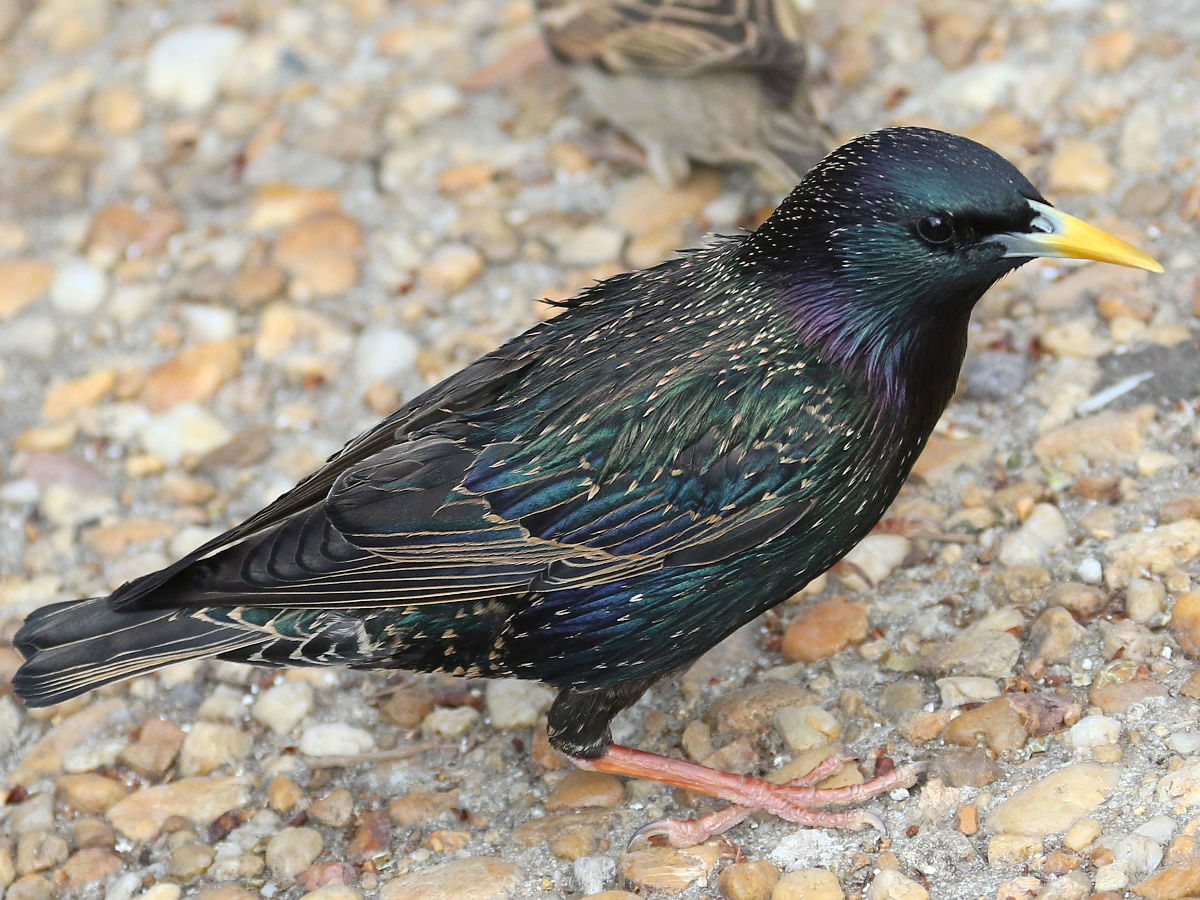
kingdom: Animalia
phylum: Chordata
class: Aves
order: Passeriformes
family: Sturnidae
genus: Sturnus
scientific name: Sturnus vulgaris
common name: Common starling
